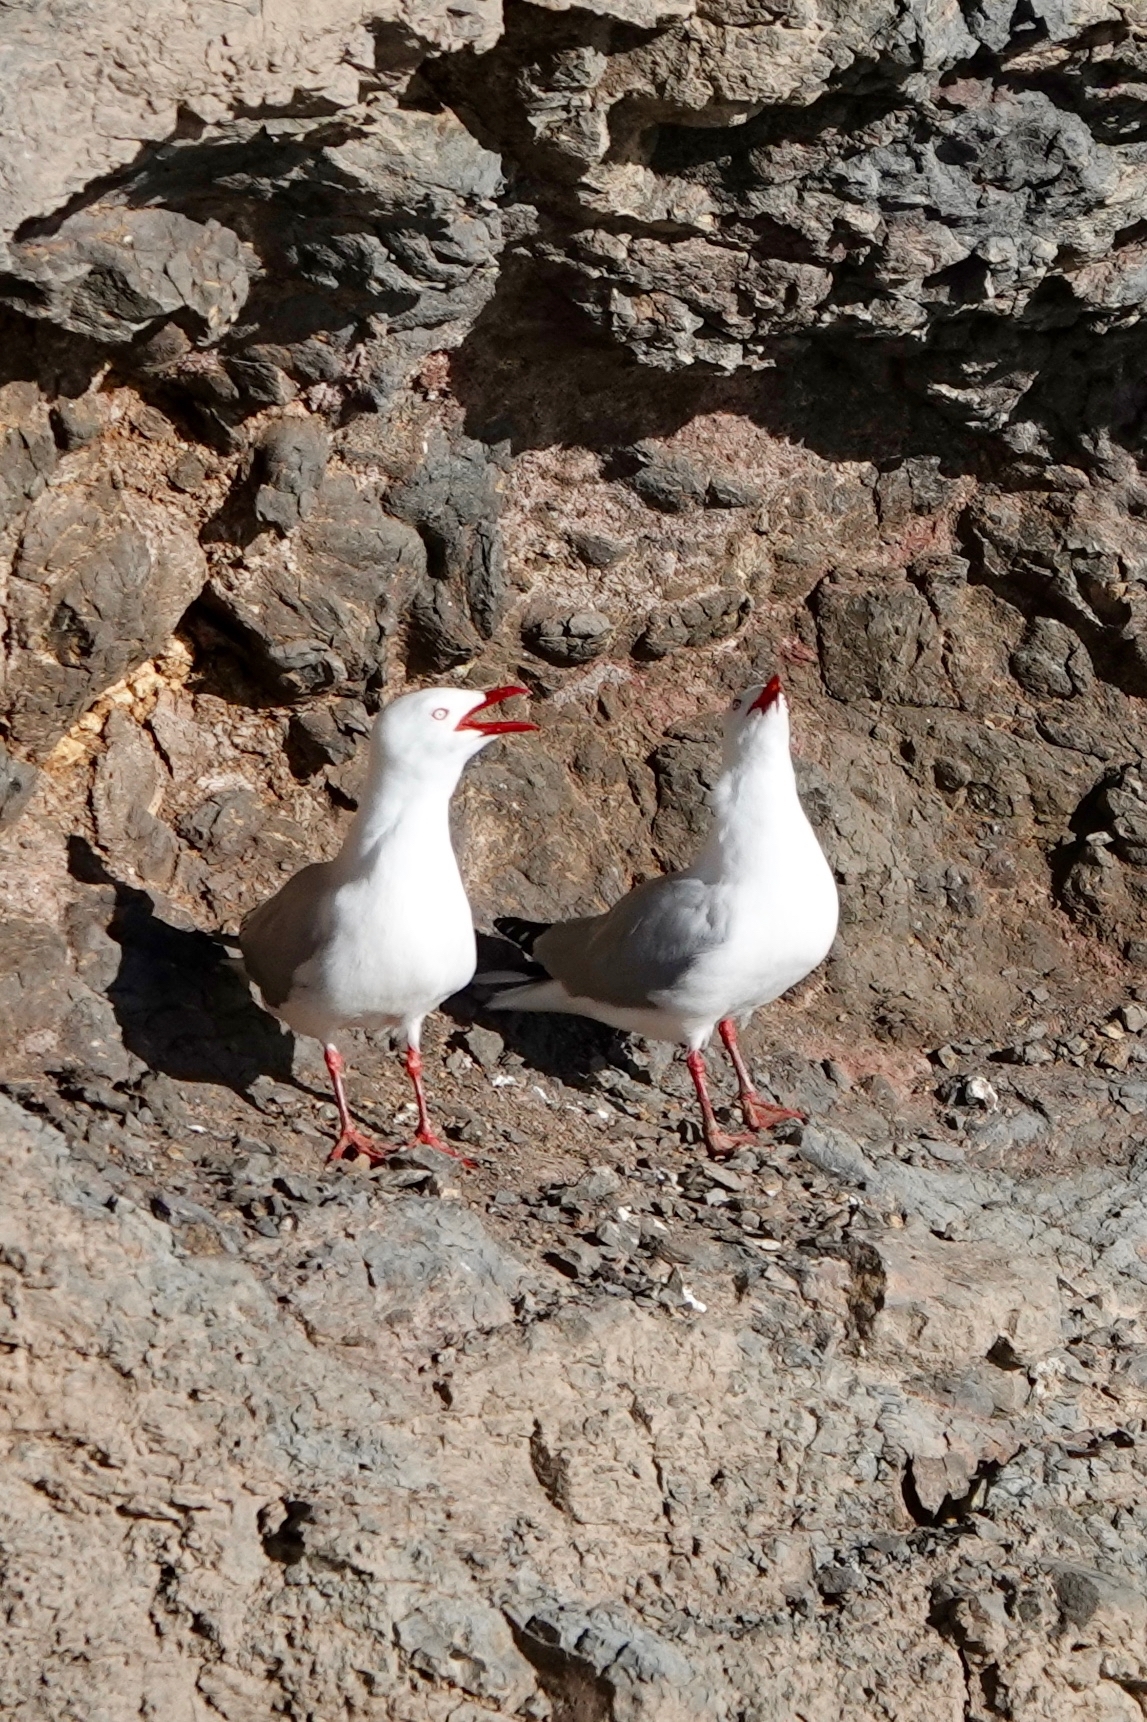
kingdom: Animalia
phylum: Chordata
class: Aves
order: Charadriiformes
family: Laridae
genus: Chroicocephalus
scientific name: Chroicocephalus novaehollandiae
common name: Silver gull
